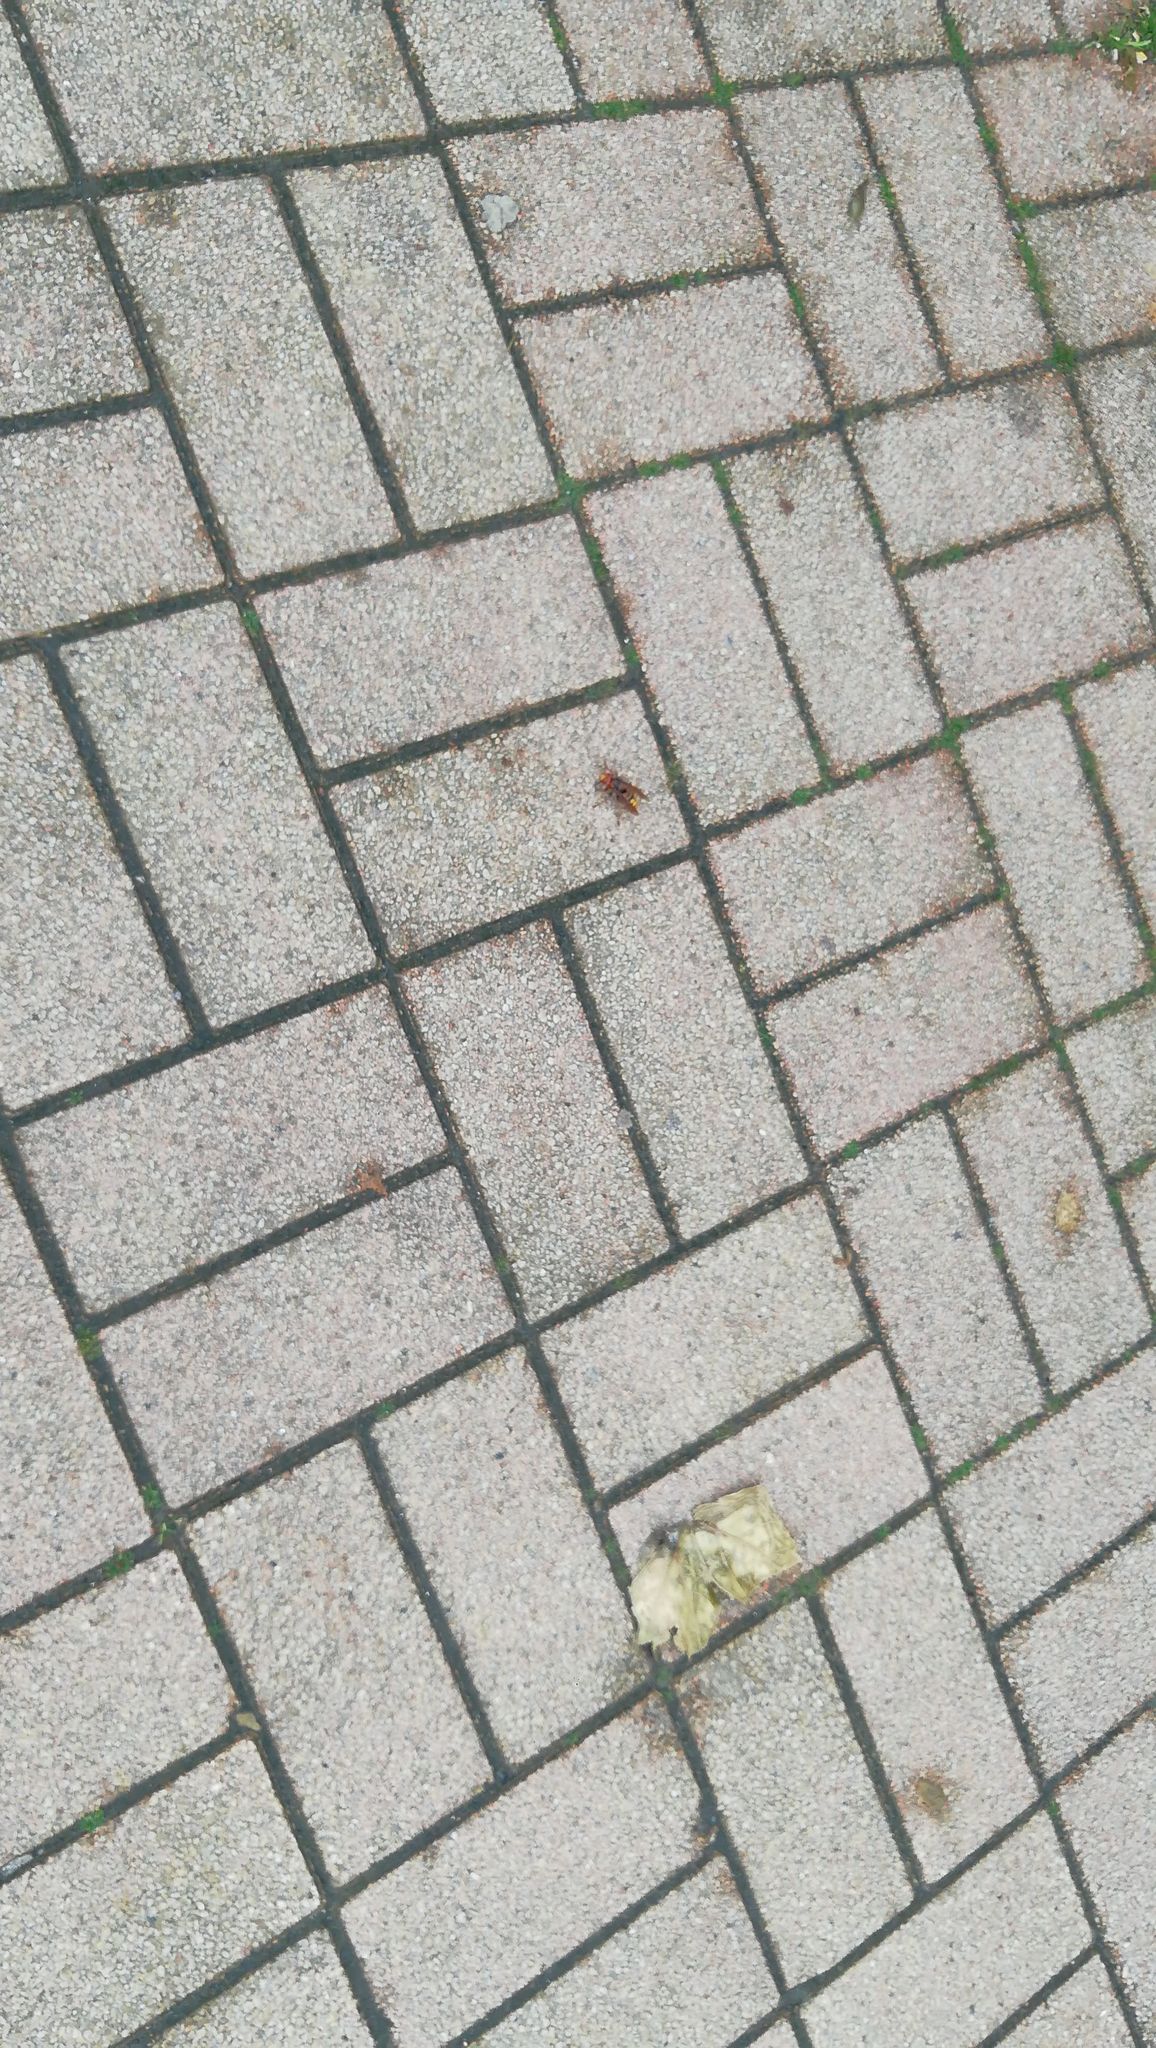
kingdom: Animalia
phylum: Arthropoda
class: Insecta
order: Hymenoptera
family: Vespidae
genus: Vespa
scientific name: Vespa crabro
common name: Hornet
